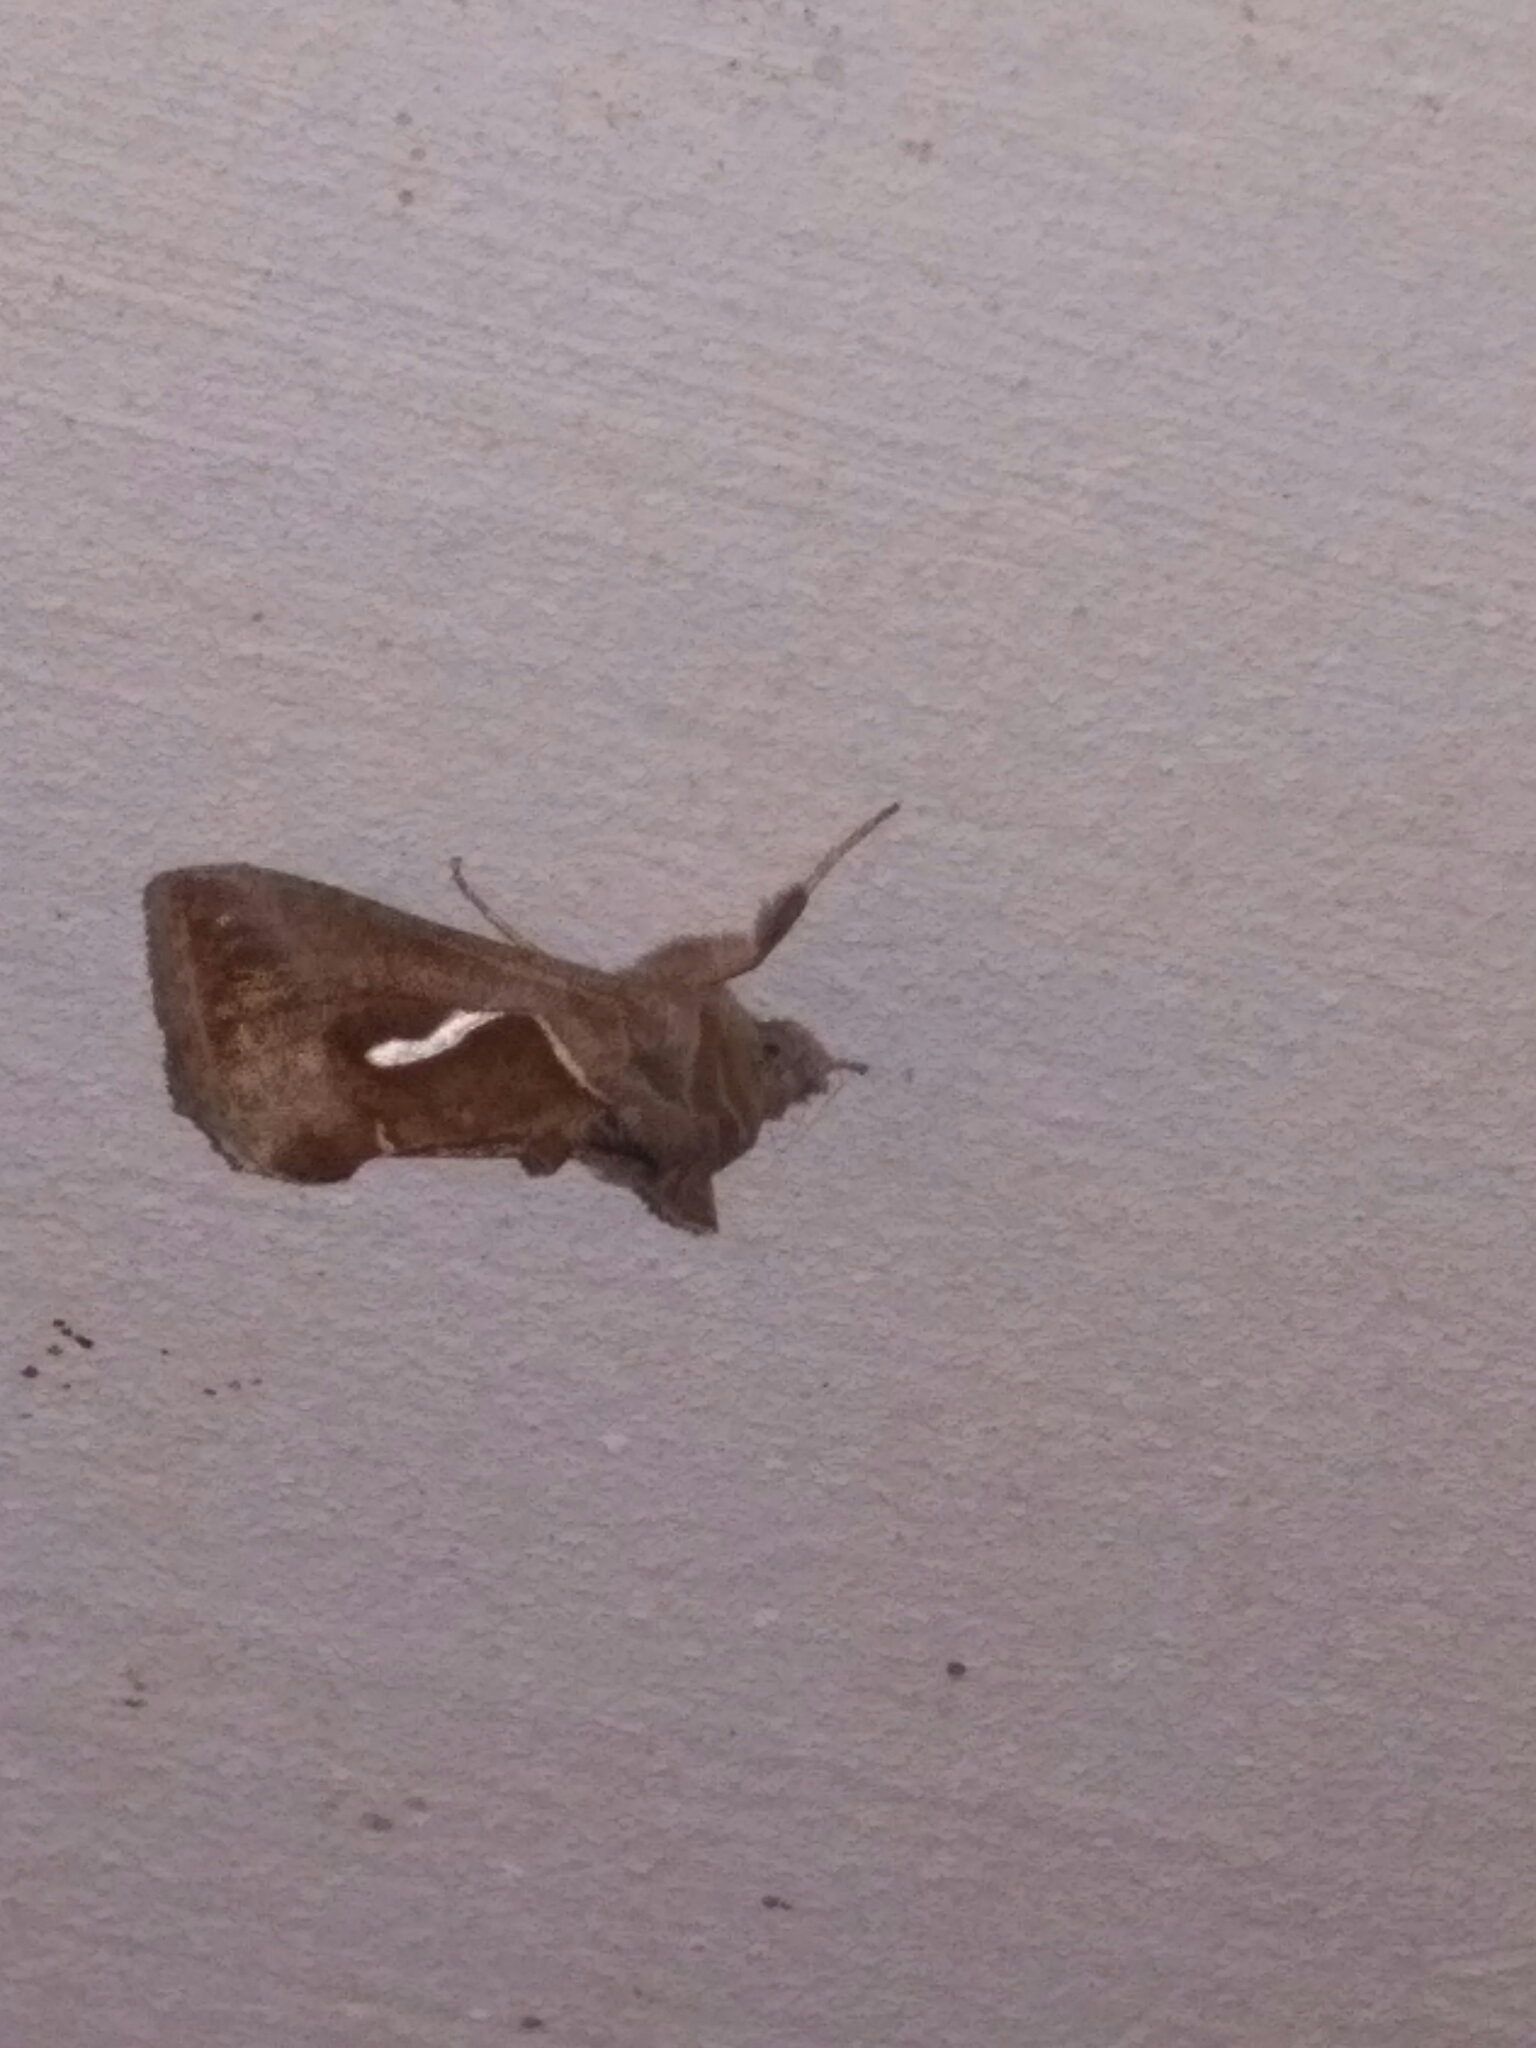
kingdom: Animalia
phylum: Arthropoda
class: Insecta
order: Lepidoptera
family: Noctuidae
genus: Macdunnoughia
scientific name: Macdunnoughia confusa
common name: Dewick's plusia
